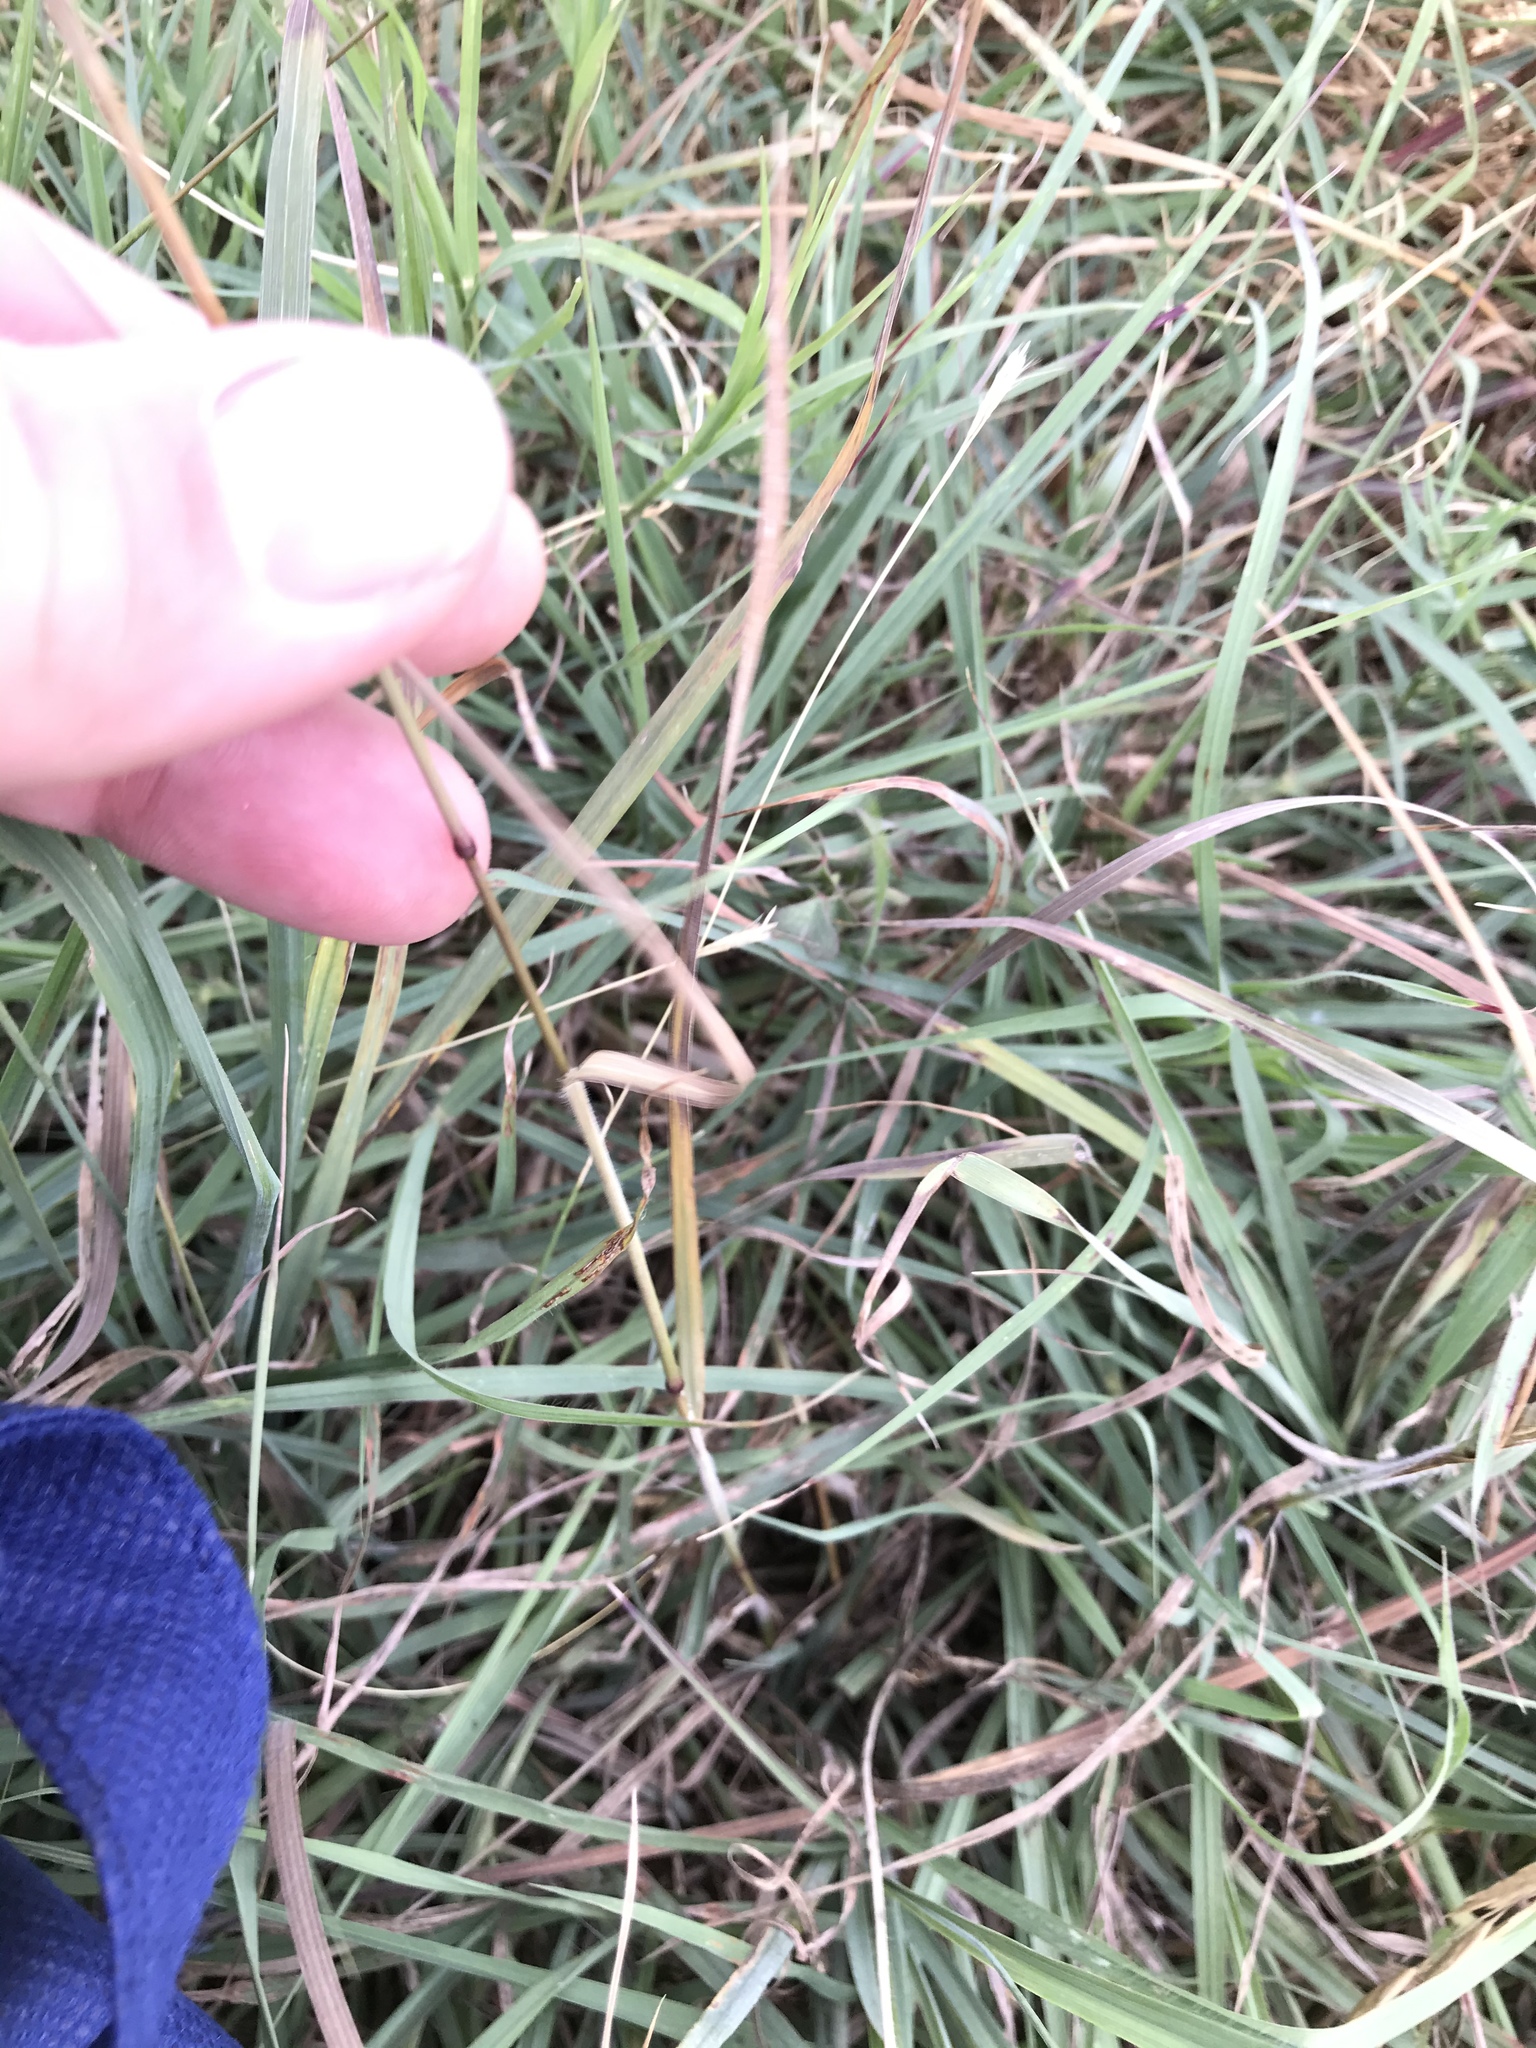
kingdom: Plantae
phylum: Tracheophyta
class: Liliopsida
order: Poales
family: Poaceae
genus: Bromus
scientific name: Bromus catharticus
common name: Rescuegrass
